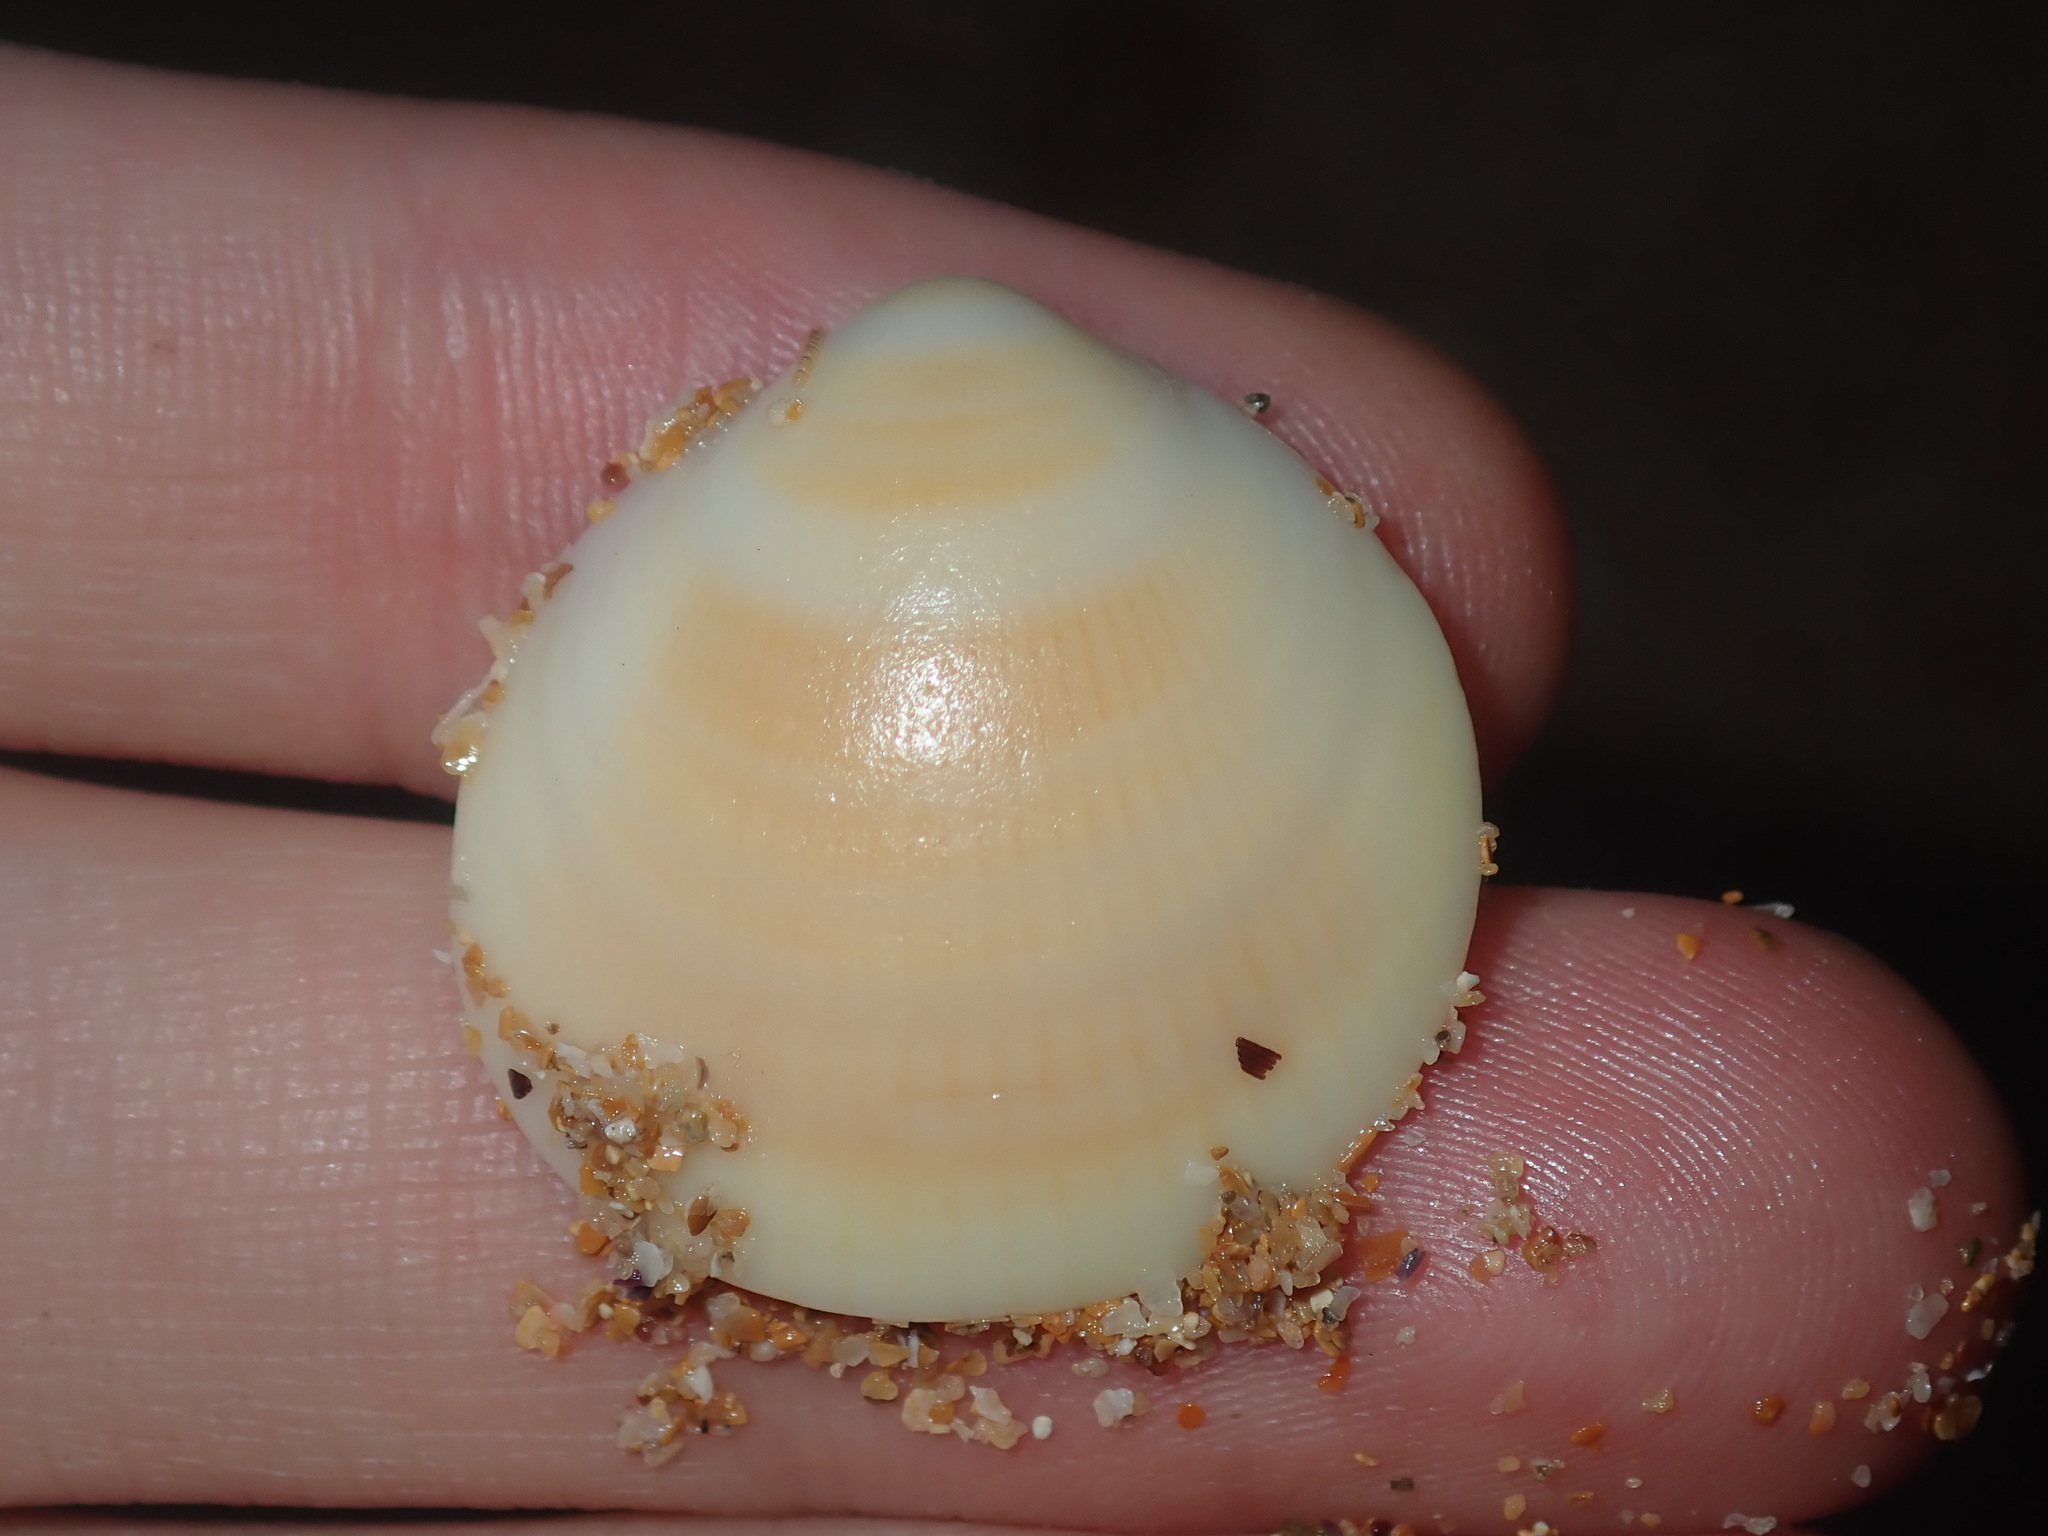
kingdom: Animalia
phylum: Mollusca
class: Bivalvia
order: Arcida
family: Glycymerididae
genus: Glycymeris
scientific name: Glycymeris grayana
